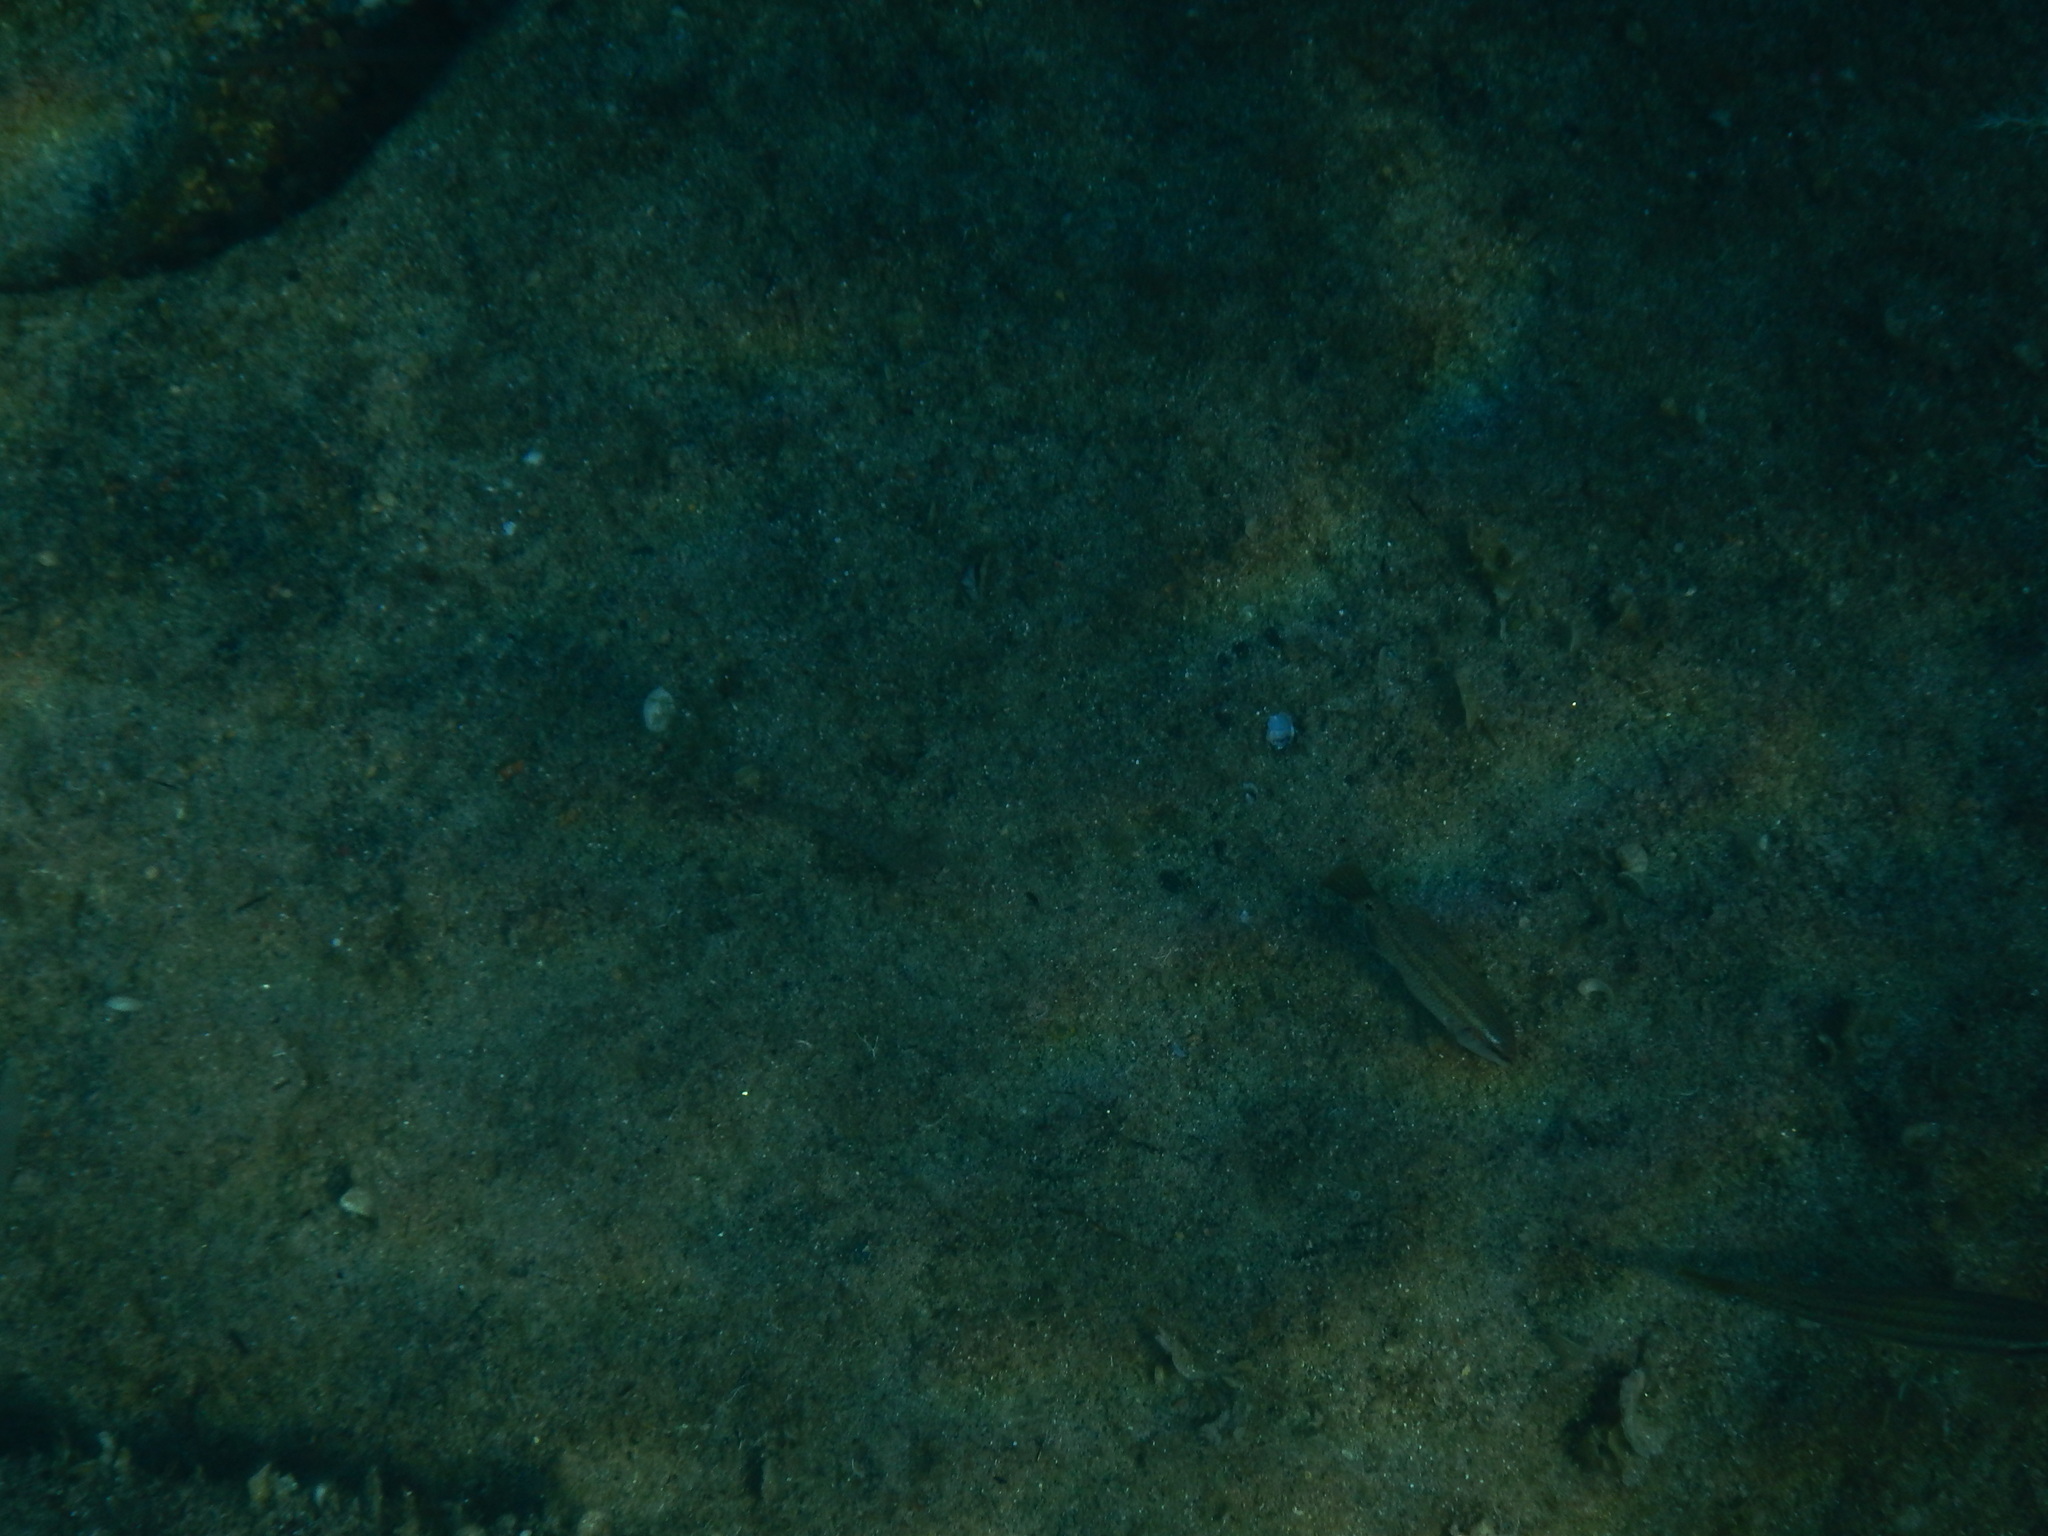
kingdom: Animalia
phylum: Chordata
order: Perciformes
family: Labridae
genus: Symphodus
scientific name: Symphodus tinca
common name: Peacock wrasse
